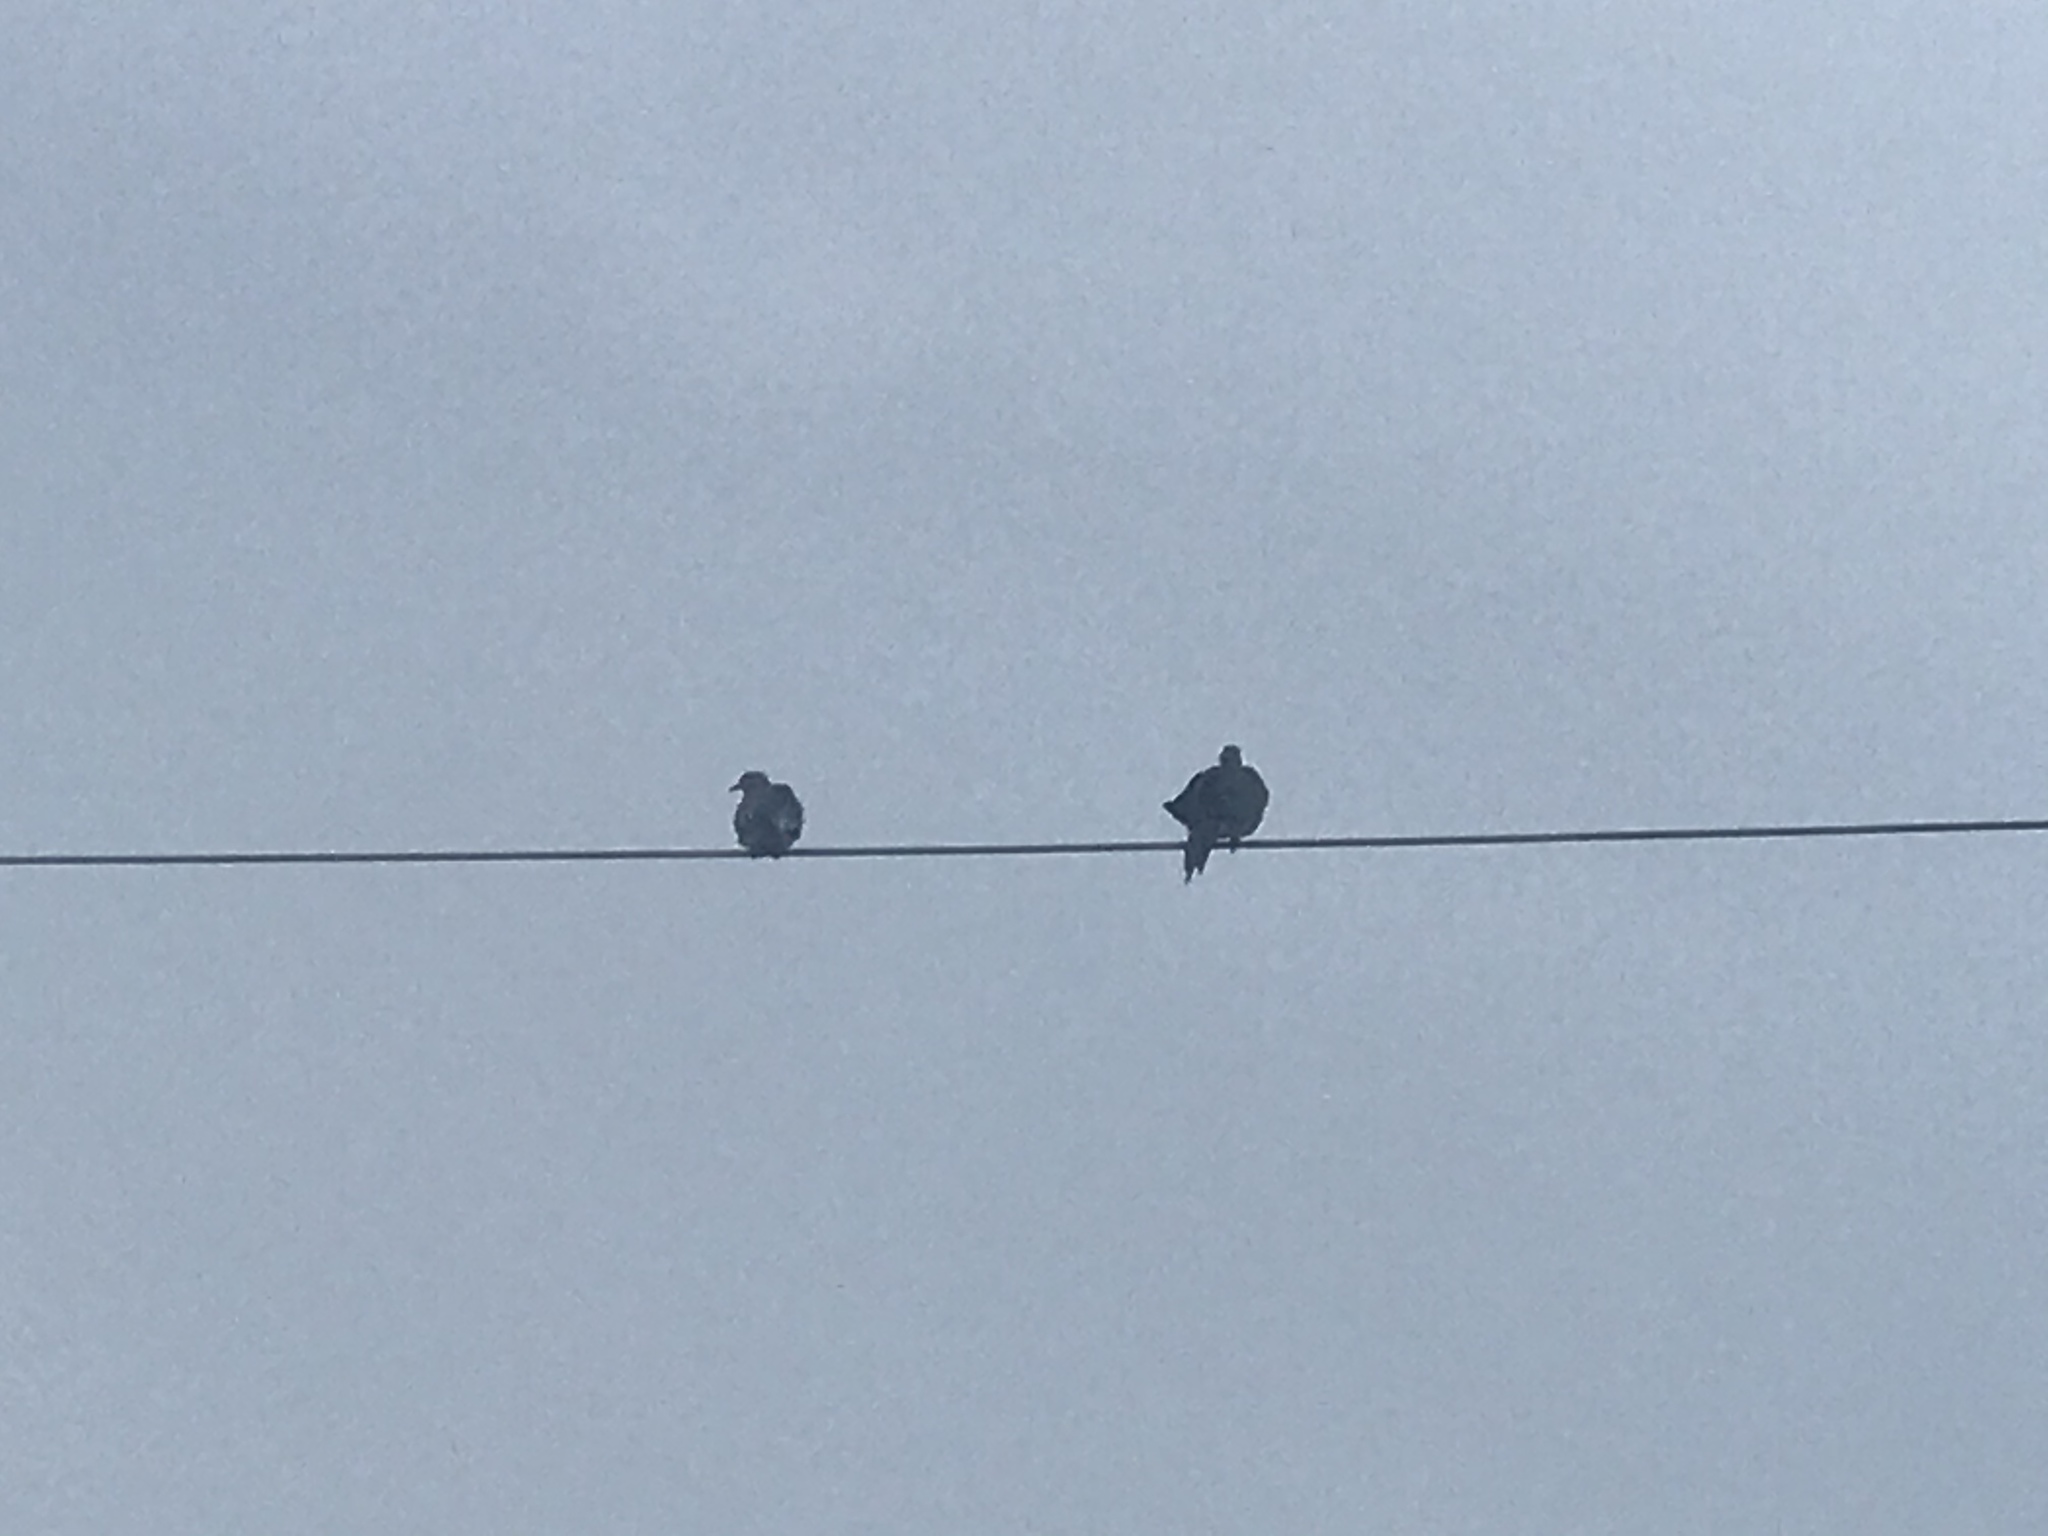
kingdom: Animalia
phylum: Chordata
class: Aves
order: Columbiformes
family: Columbidae
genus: Zenaida
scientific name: Zenaida macroura
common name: Mourning dove
